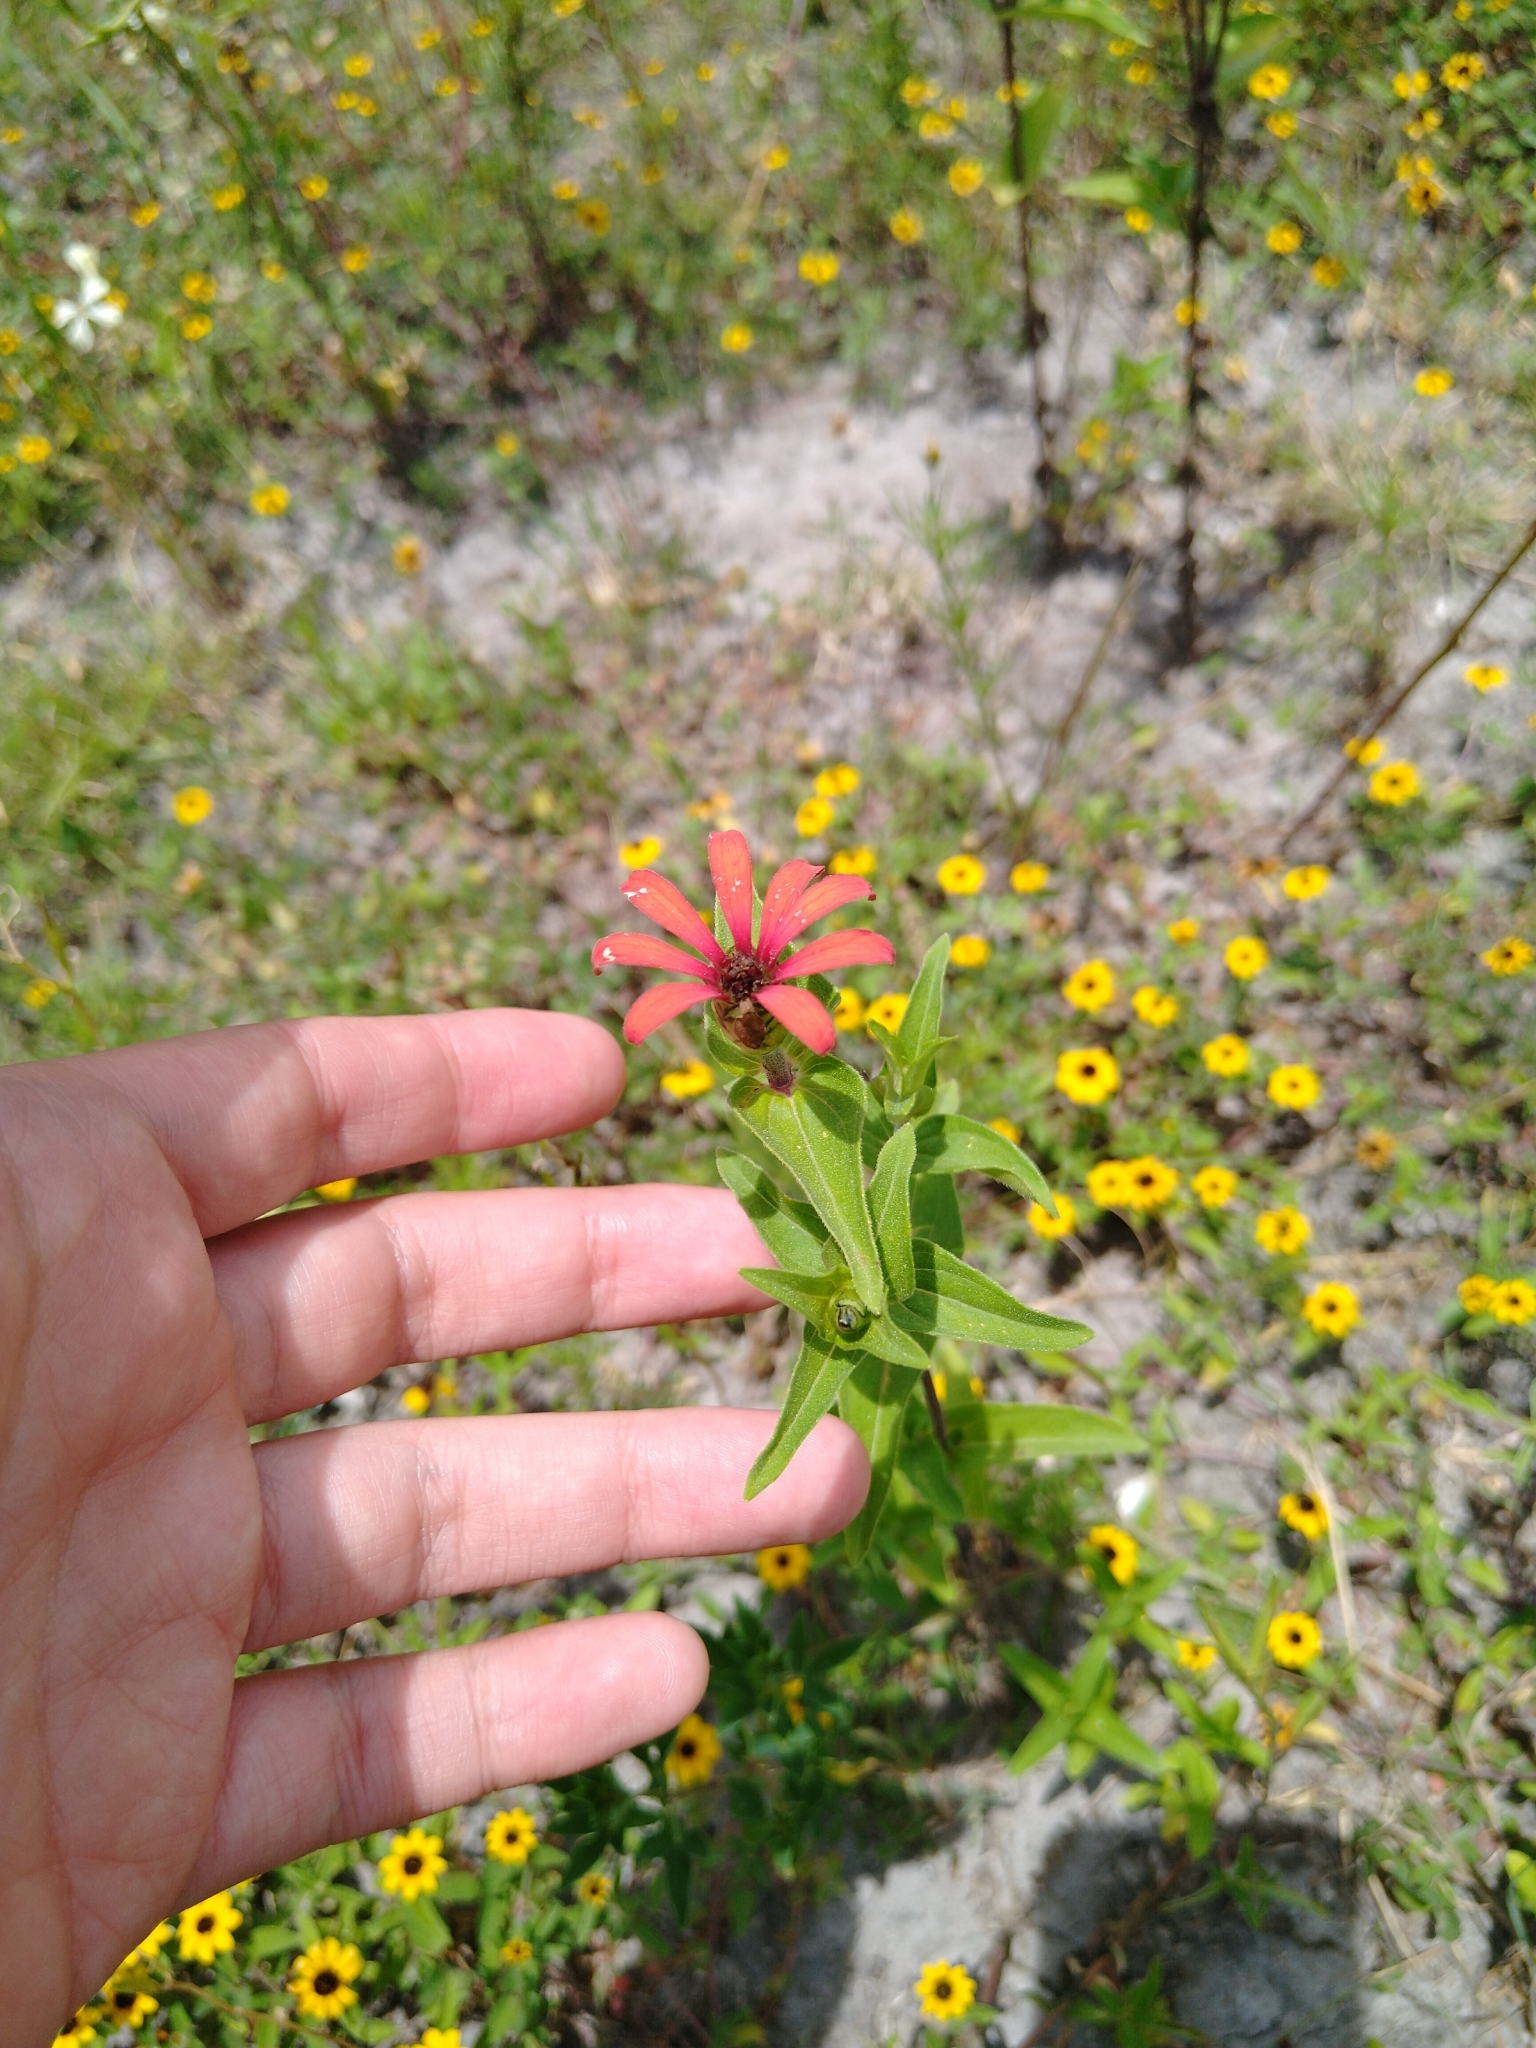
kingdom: Plantae
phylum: Tracheophyta
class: Magnoliopsida
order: Asterales
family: Asteraceae
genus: Zinnia
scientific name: Zinnia peruviana
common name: Peruvian zinnia
